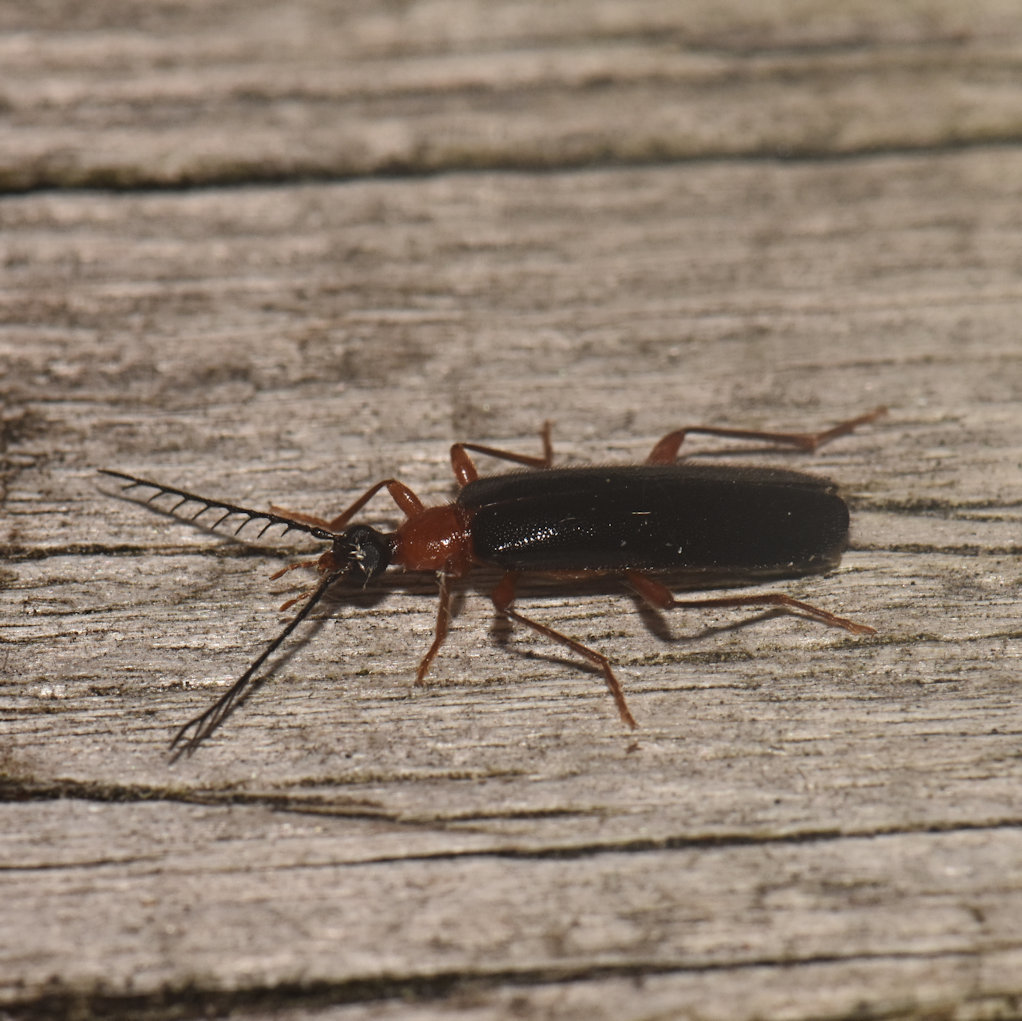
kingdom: Animalia
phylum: Arthropoda
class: Insecta
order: Coleoptera
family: Pyrochroidae
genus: Dendroides
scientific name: Dendroides canadensis
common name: Canada fire-colored beetle
